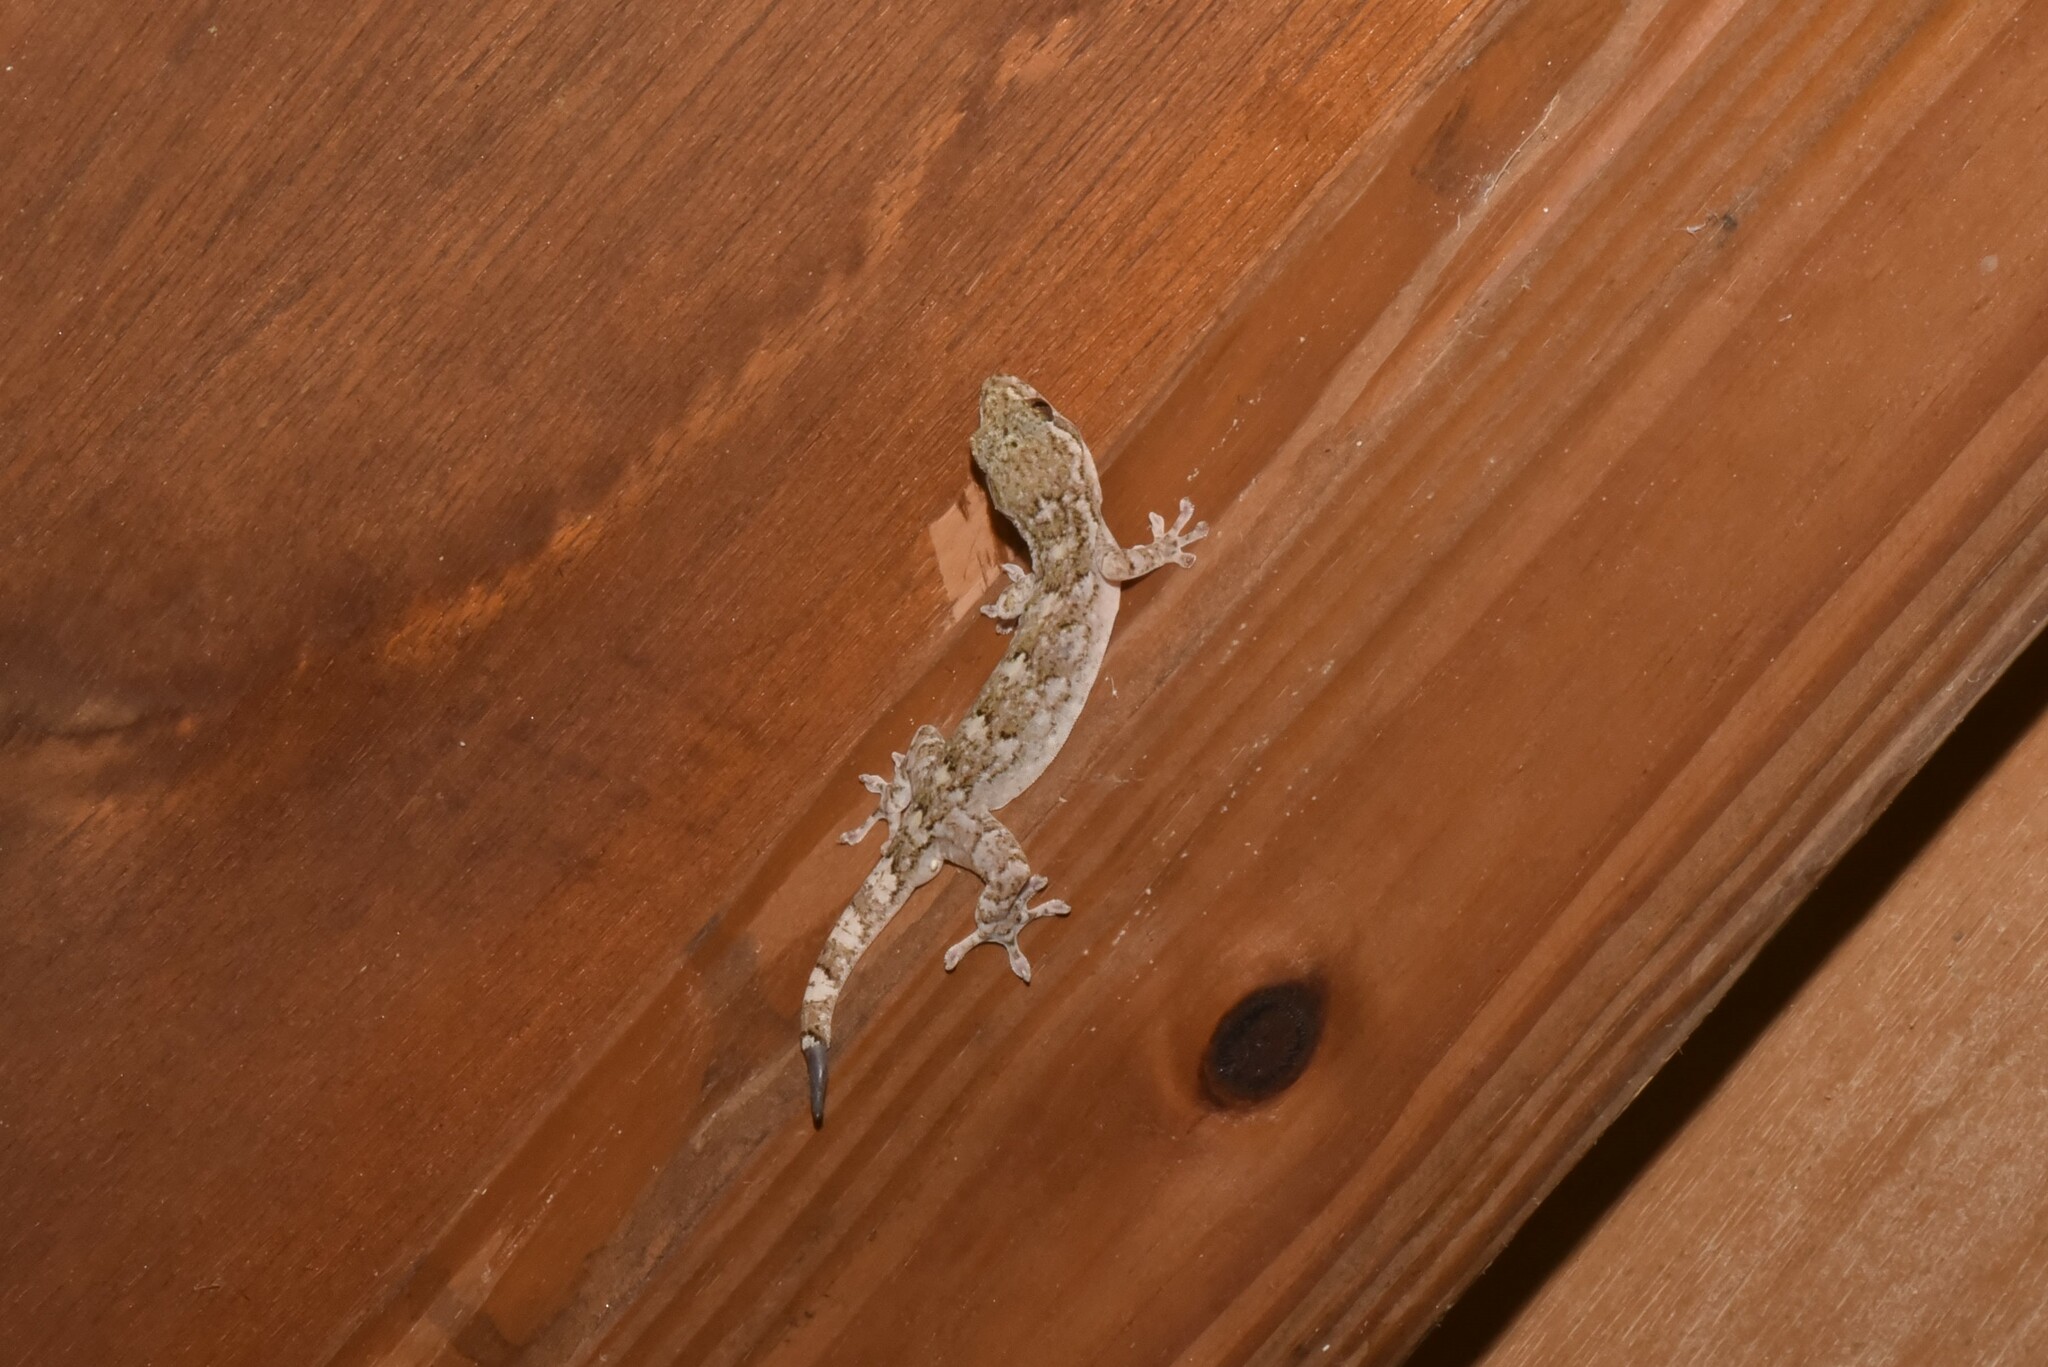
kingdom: Animalia
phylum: Chordata
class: Squamata
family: Gekkonidae
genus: Gekko
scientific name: Gekko hokouensis
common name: Kwangsi gecko
